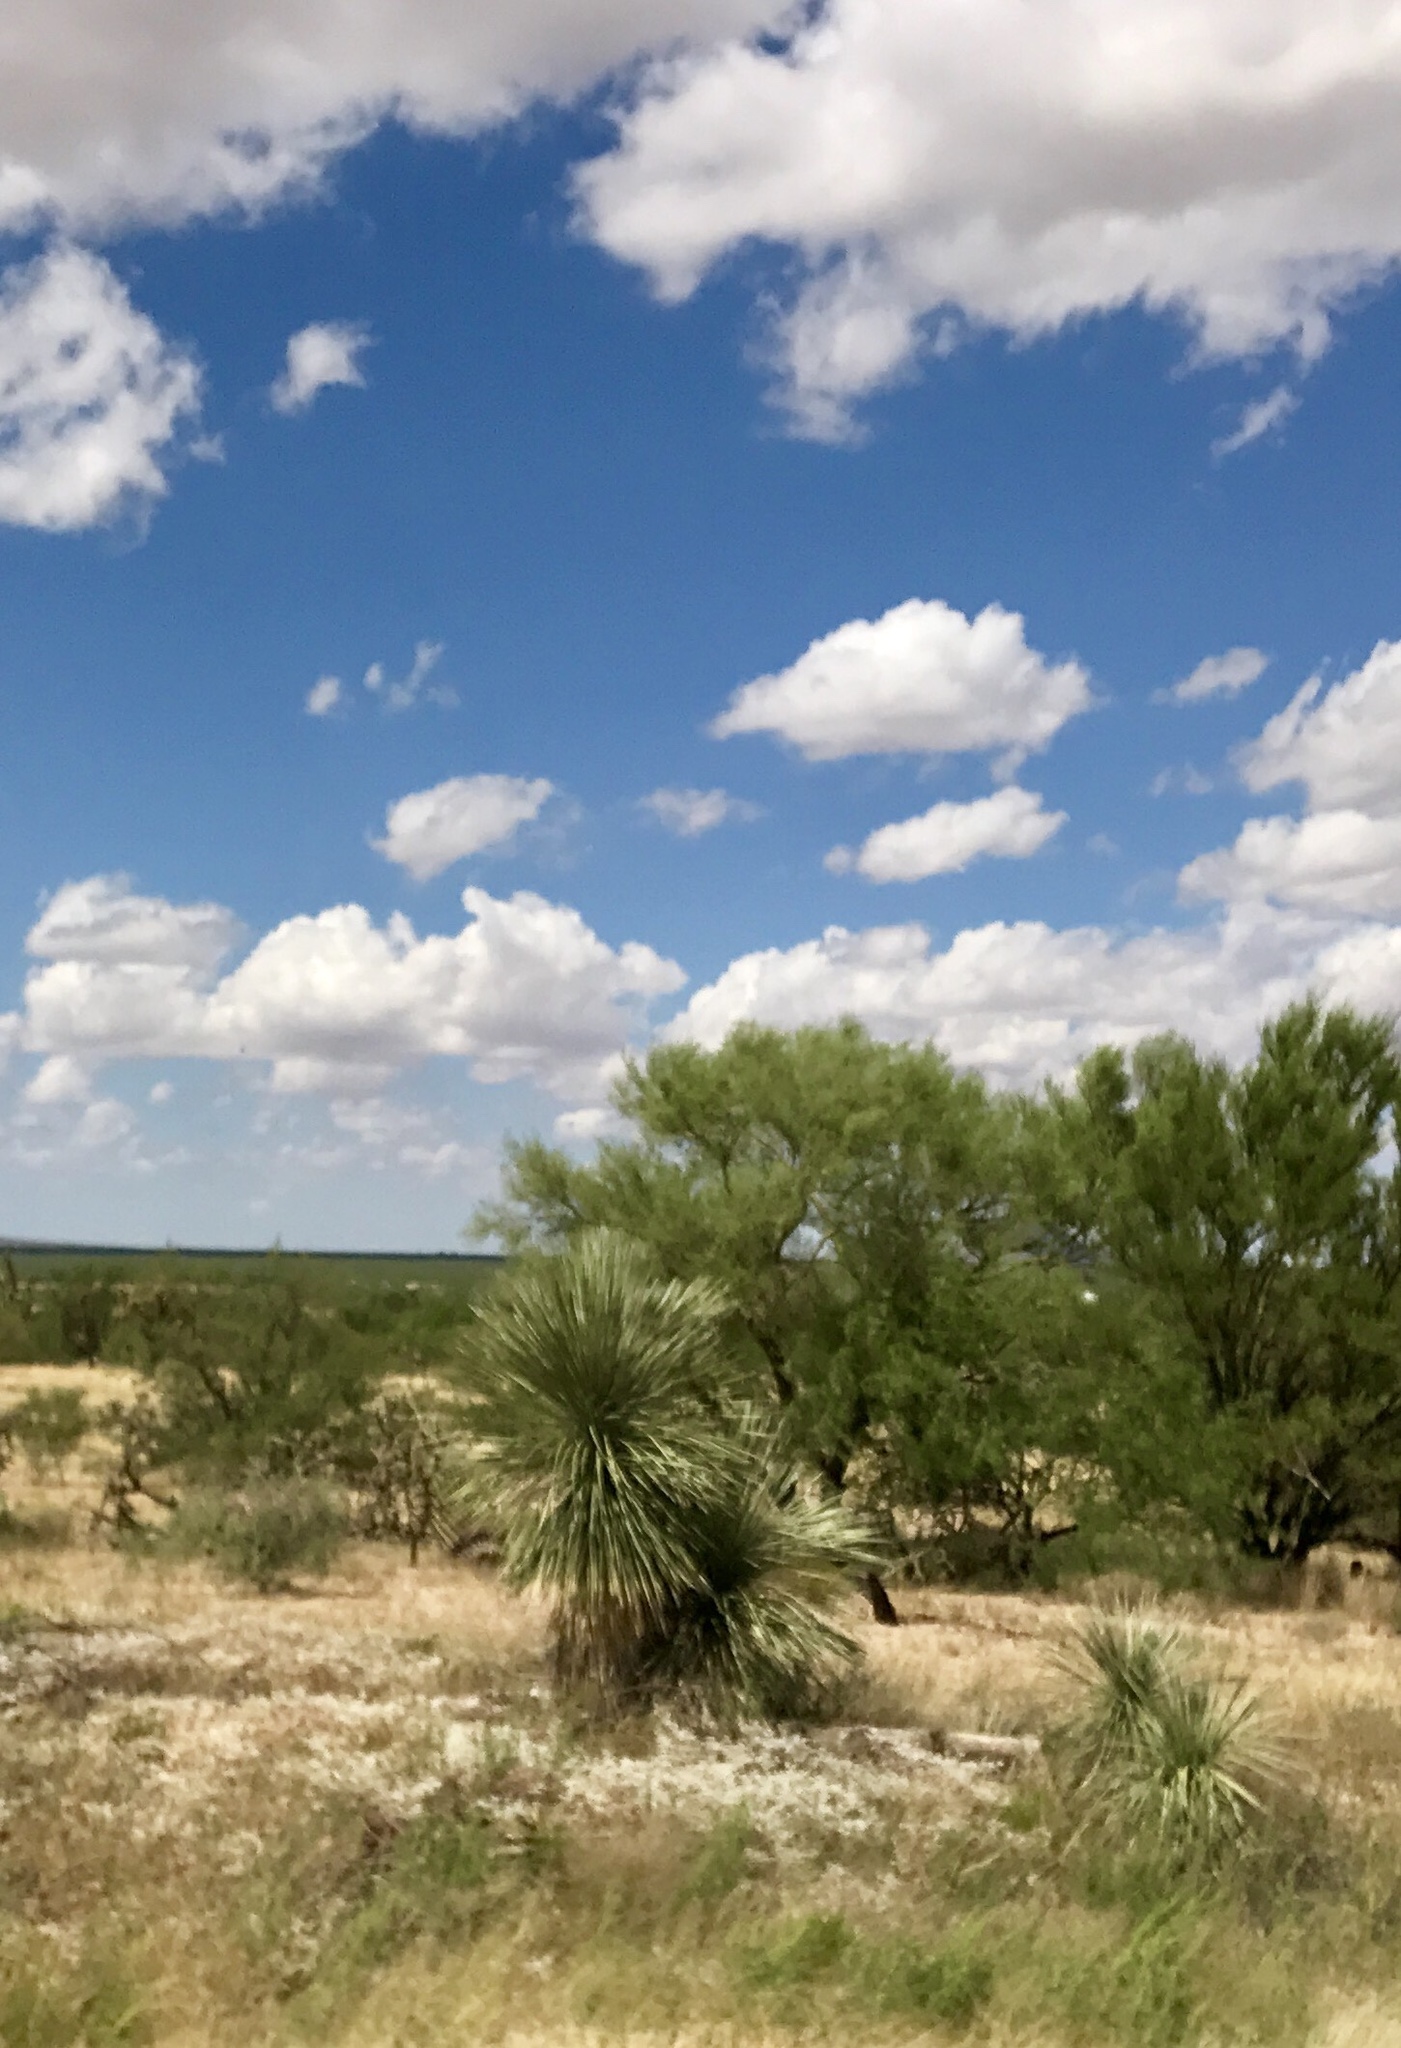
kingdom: Plantae
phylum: Tracheophyta
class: Liliopsida
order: Asparagales
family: Asparagaceae
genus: Yucca
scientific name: Yucca elata
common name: Palmella
